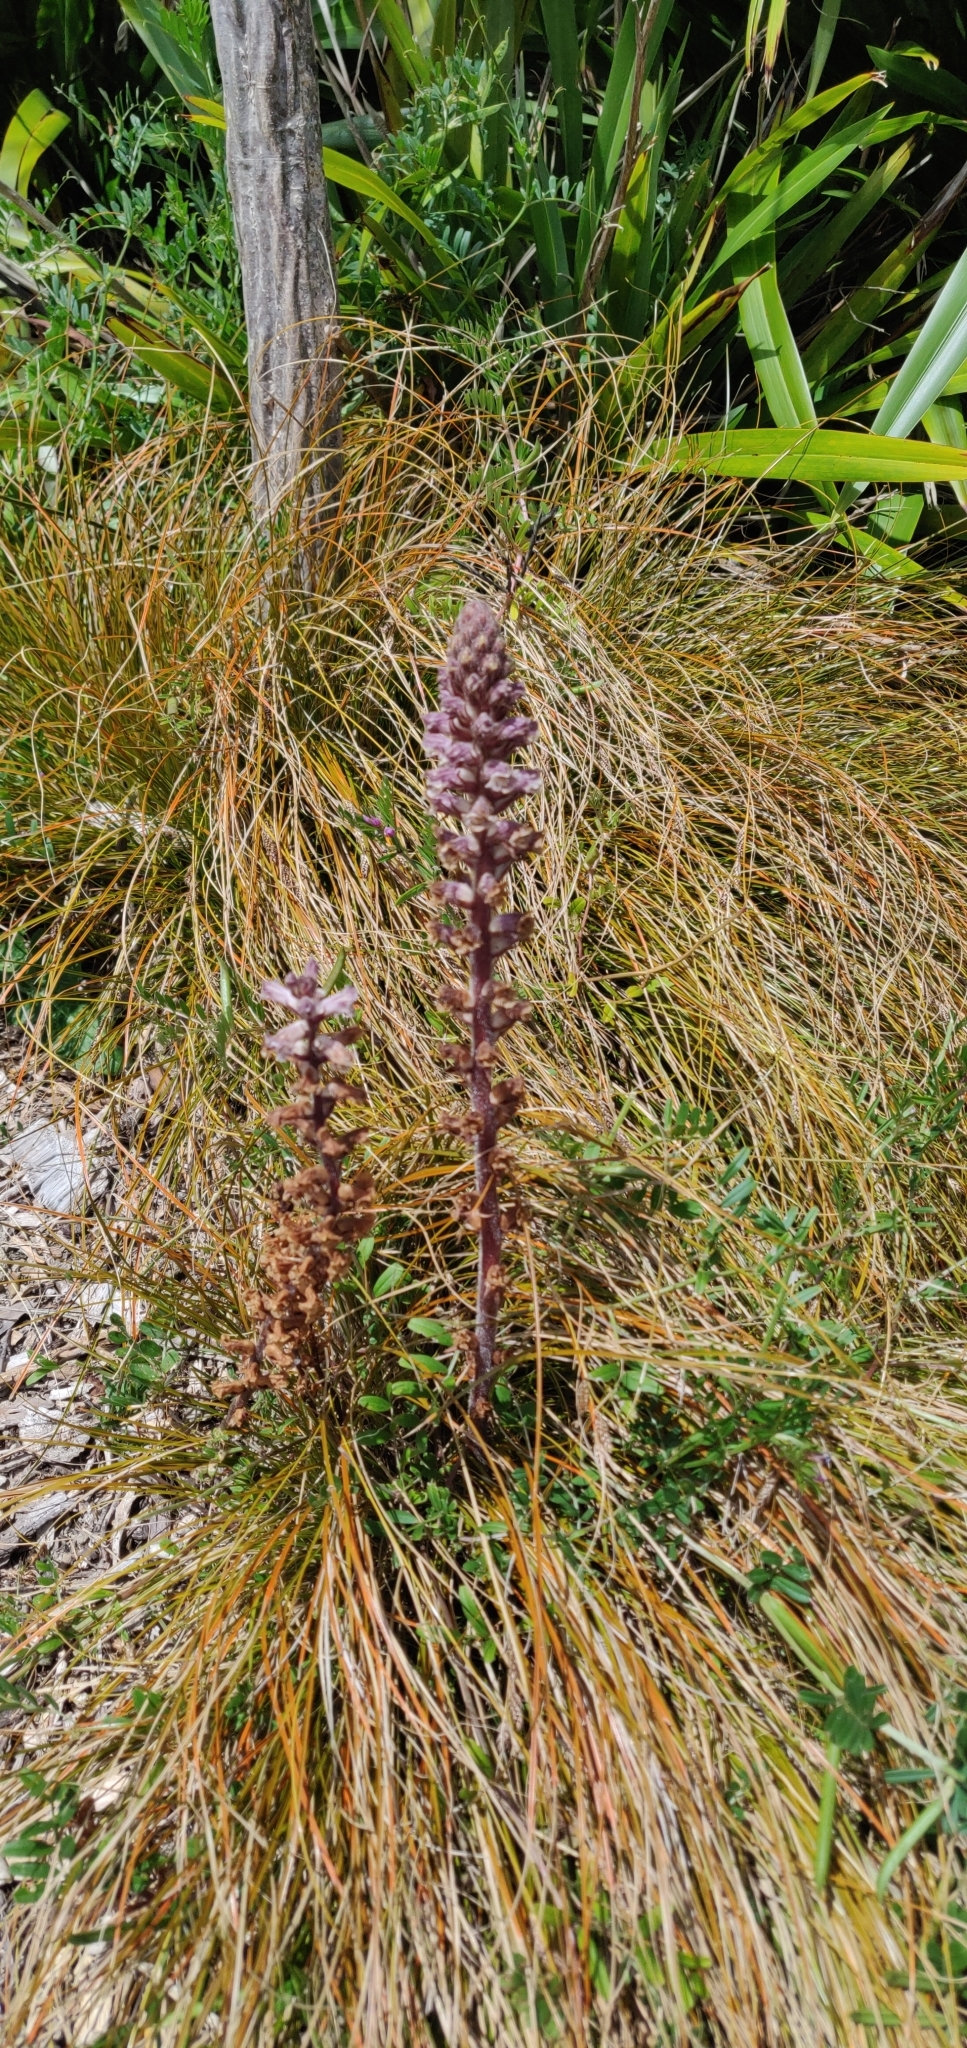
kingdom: Plantae
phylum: Tracheophyta
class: Magnoliopsida
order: Lamiales
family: Orobanchaceae
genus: Orobanche
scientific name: Orobanche minor
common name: Common broomrape
